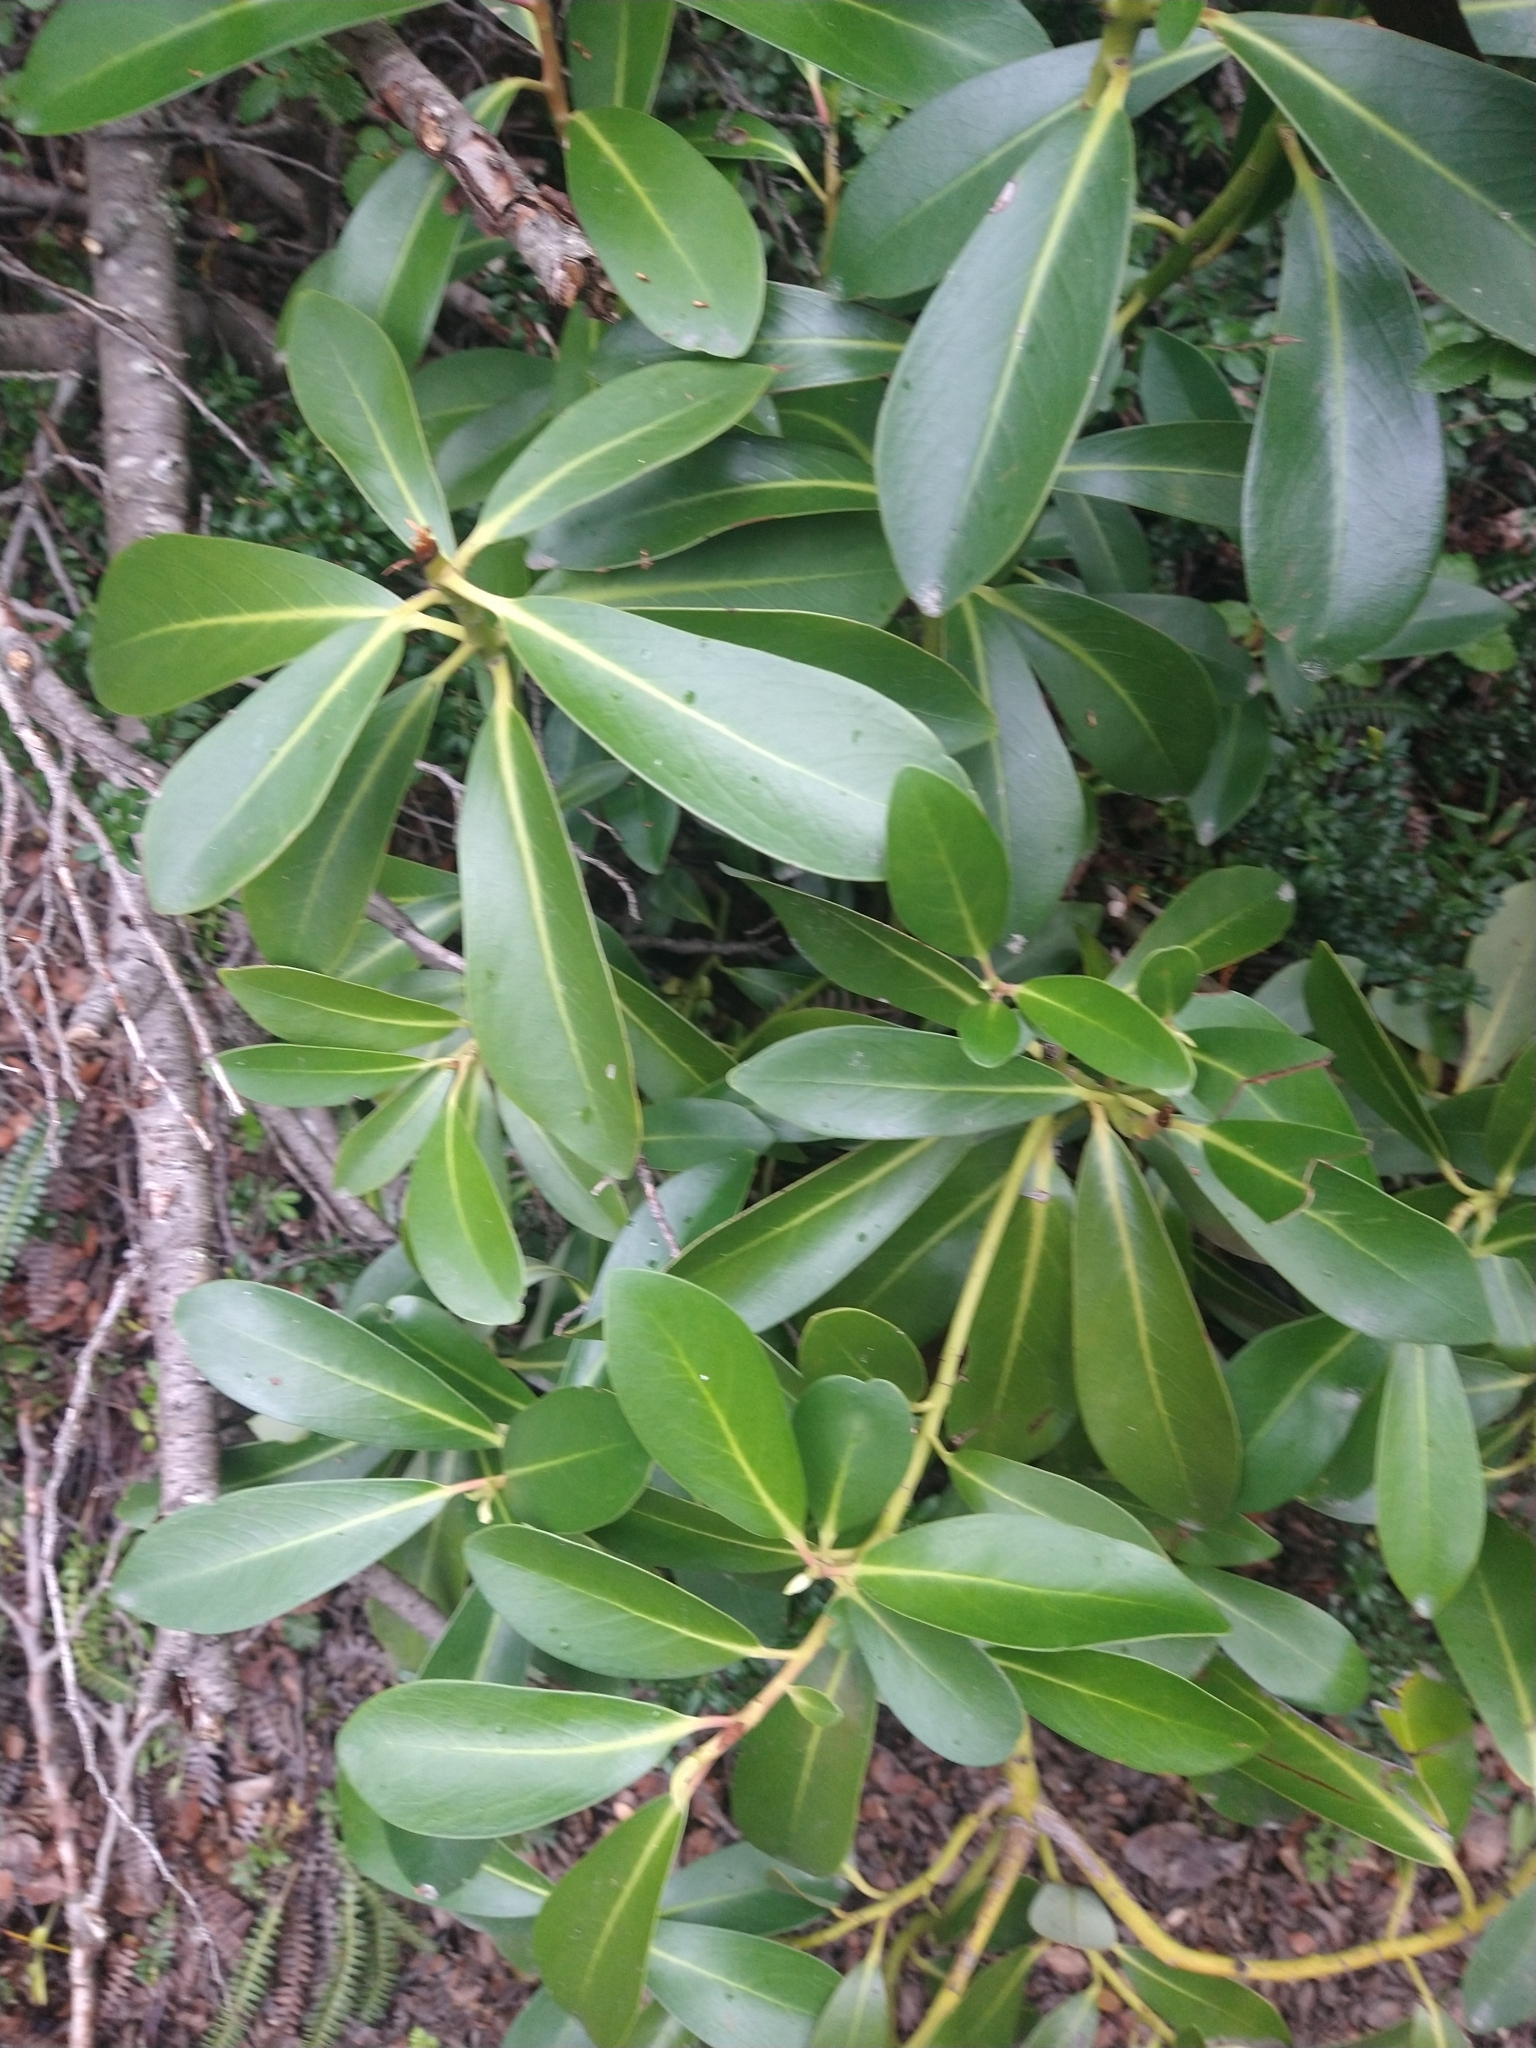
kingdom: Plantae
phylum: Tracheophyta
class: Magnoliopsida
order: Canellales
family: Winteraceae
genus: Drimys
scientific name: Drimys winteri
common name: Winter's-bark
